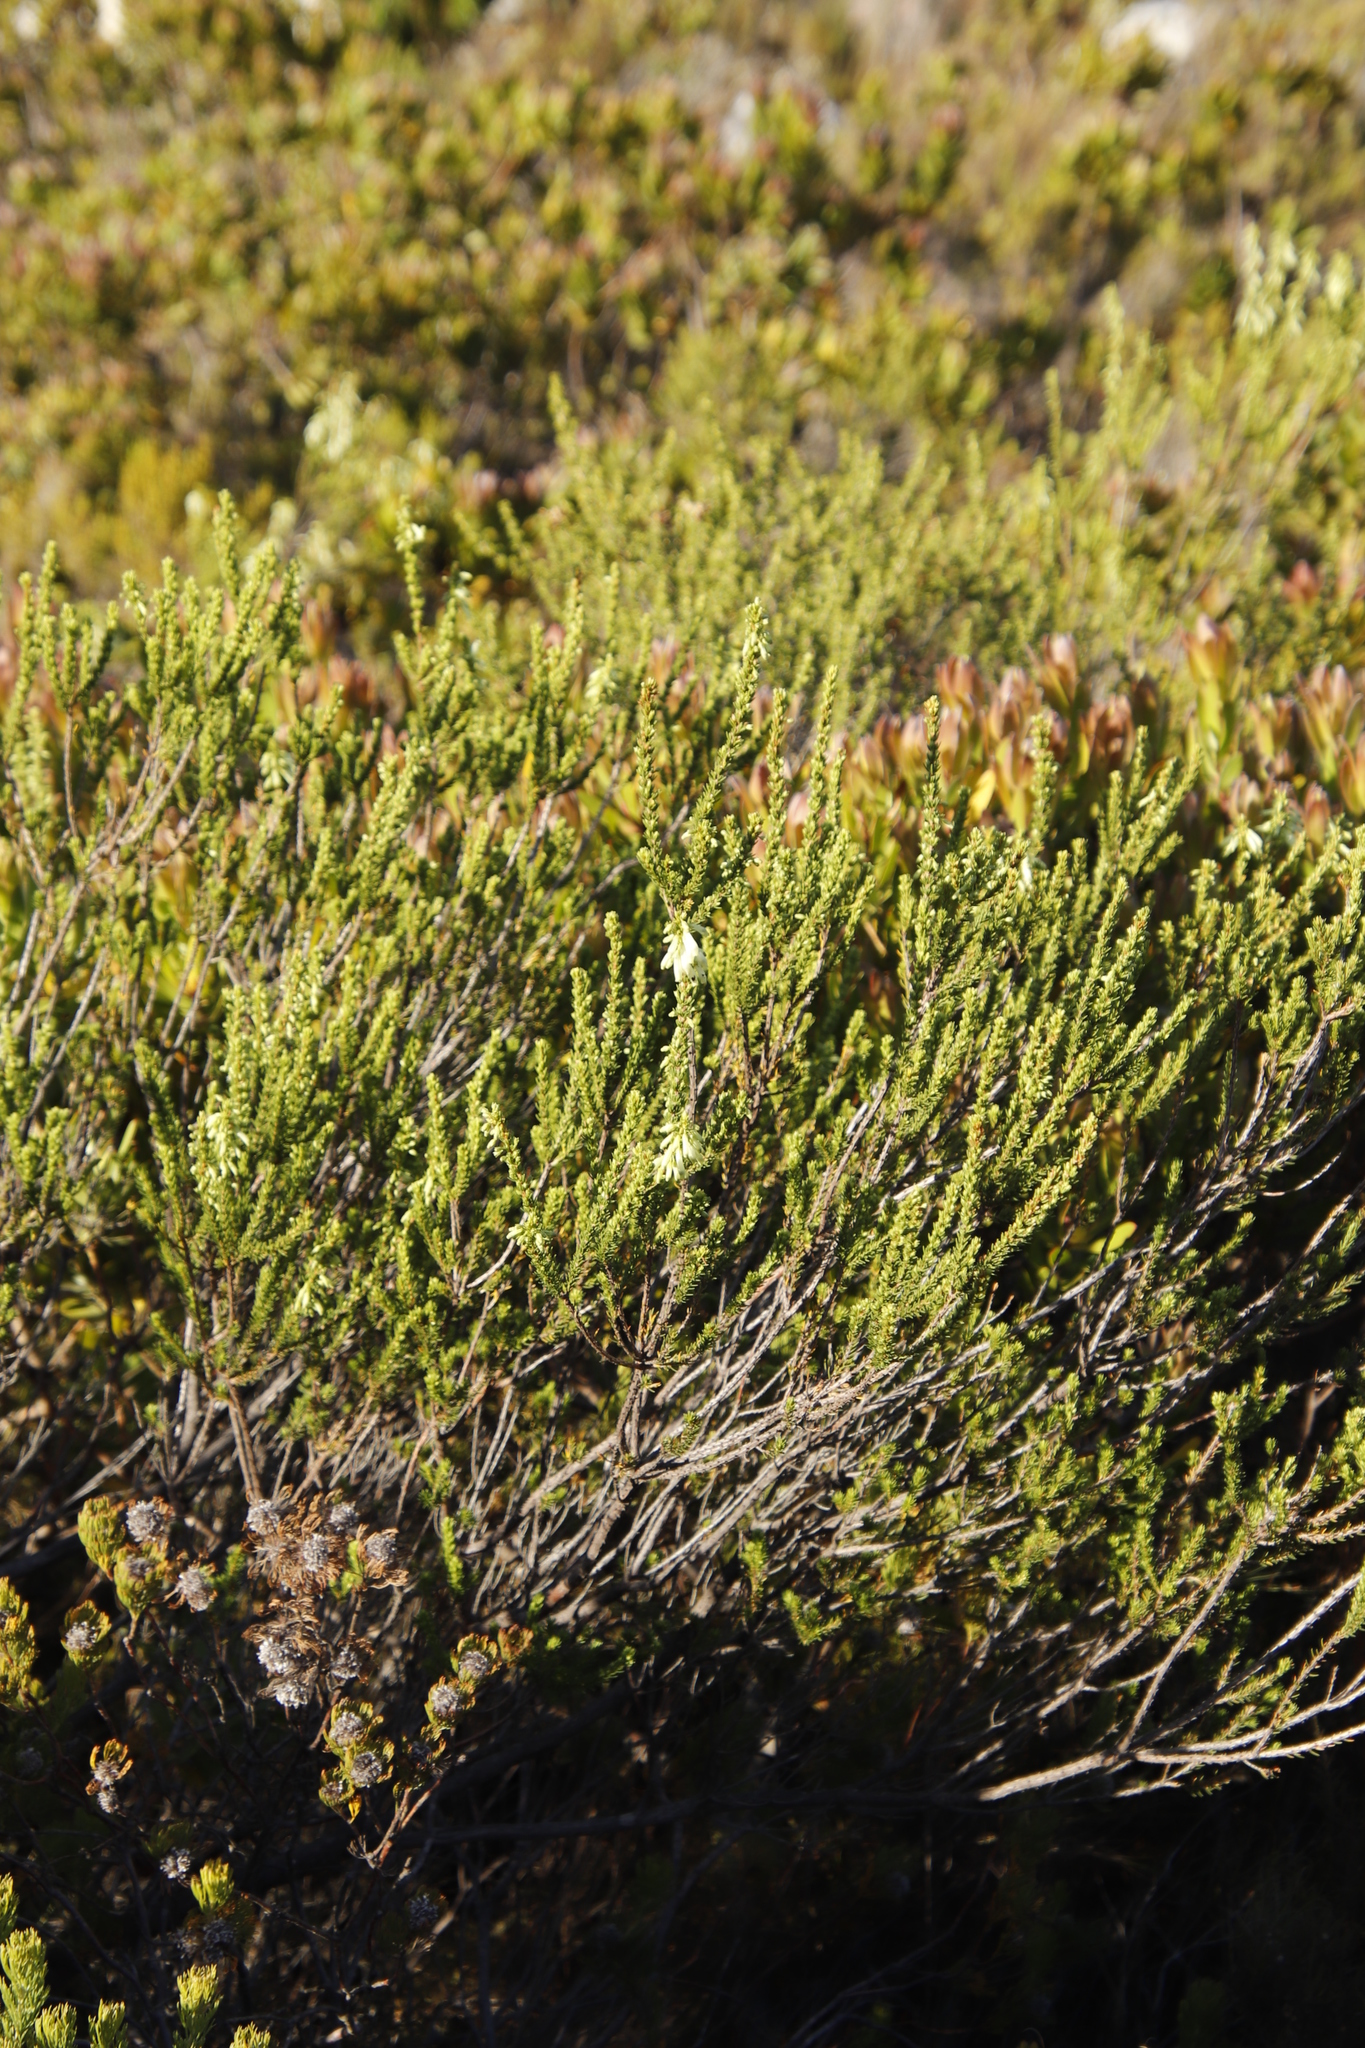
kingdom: Plantae
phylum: Tracheophyta
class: Magnoliopsida
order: Ericales
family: Ericaceae
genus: Erica
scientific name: Erica mammosa
